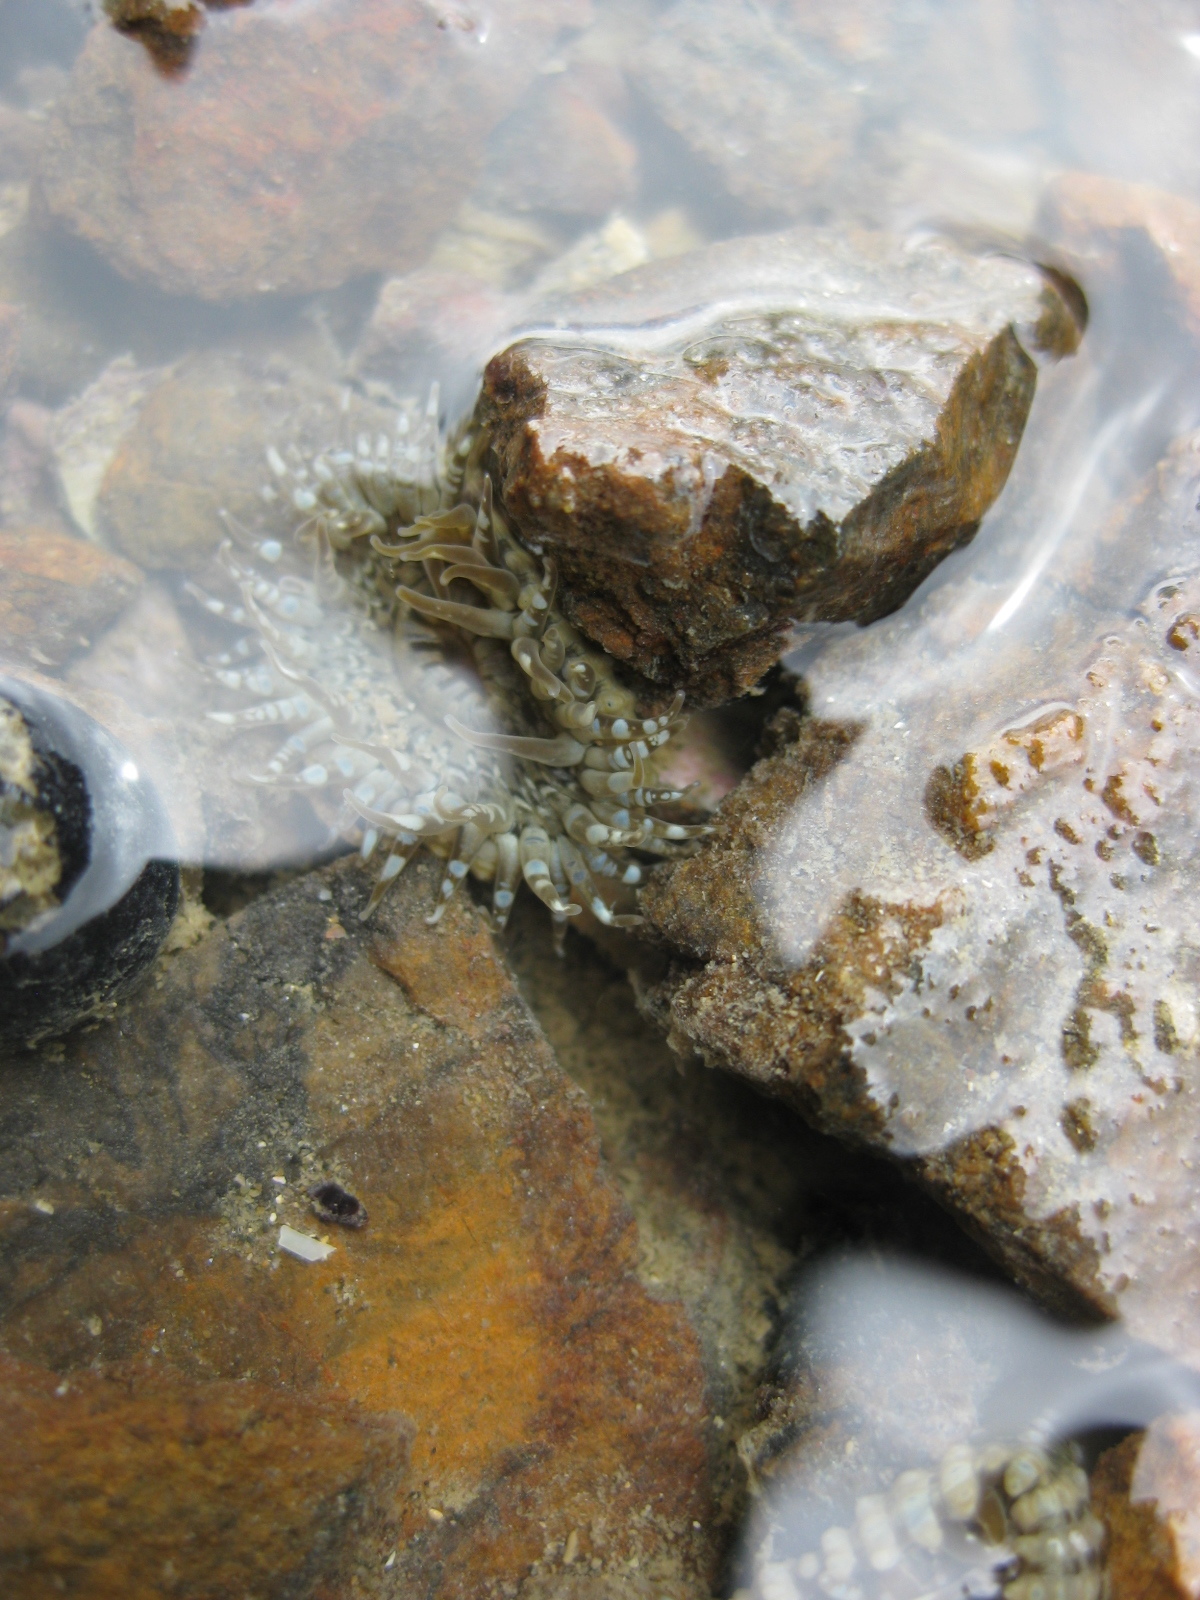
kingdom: Animalia
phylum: Cnidaria
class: Anthozoa
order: Actiniaria
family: Actiniidae
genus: Anthopleura
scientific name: Anthopleura hermaphroditica
